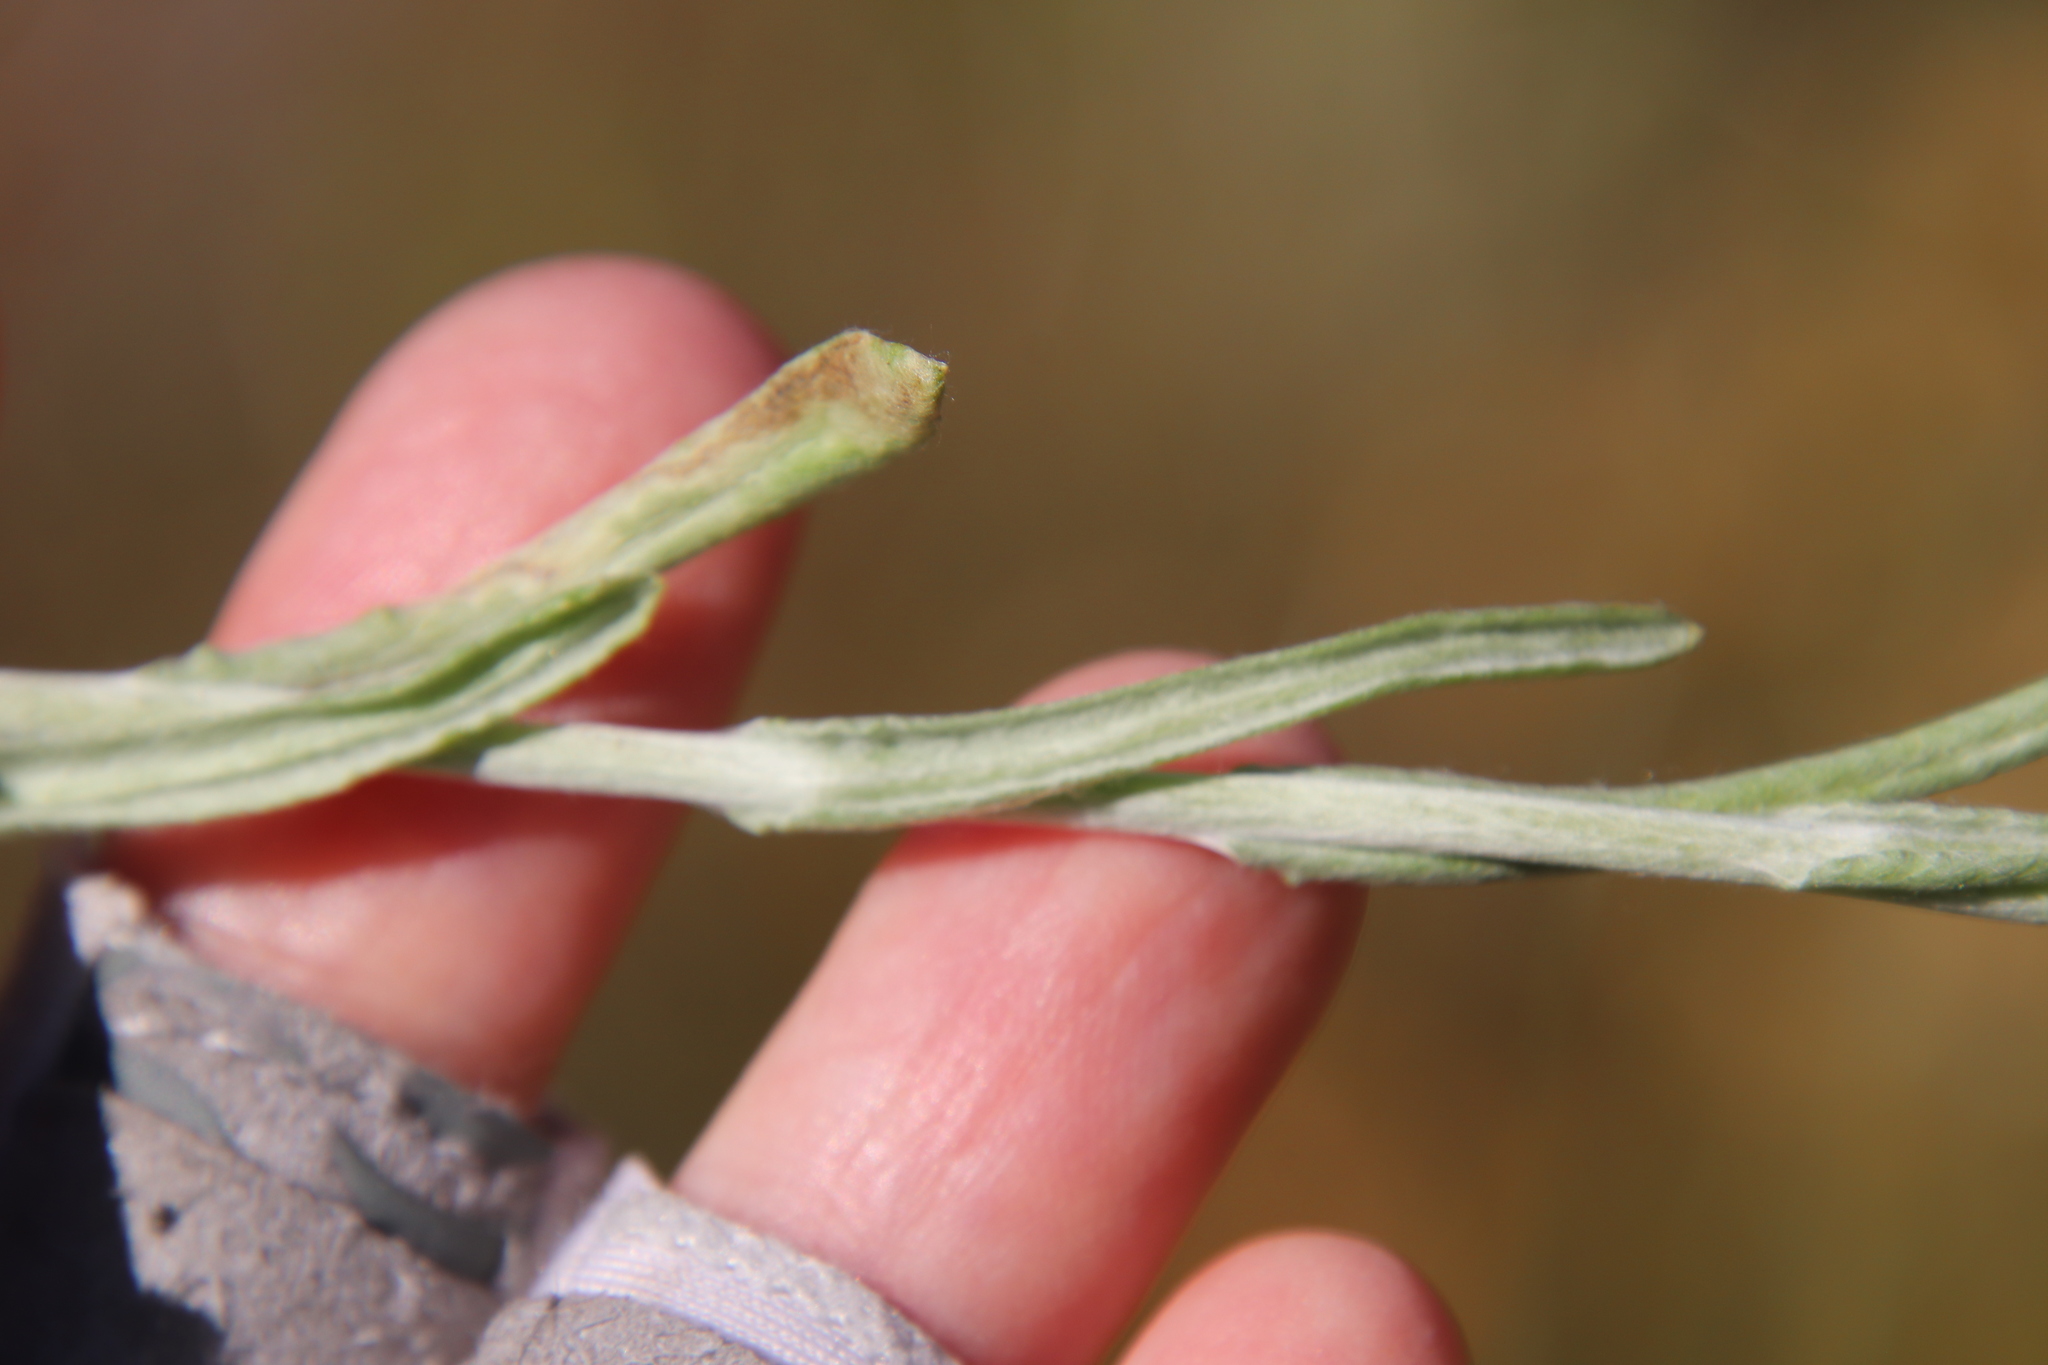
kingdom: Plantae
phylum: Tracheophyta
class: Magnoliopsida
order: Asterales
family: Asteraceae
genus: Helichrysum
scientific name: Helichrysum luteoalbum
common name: Daisy
